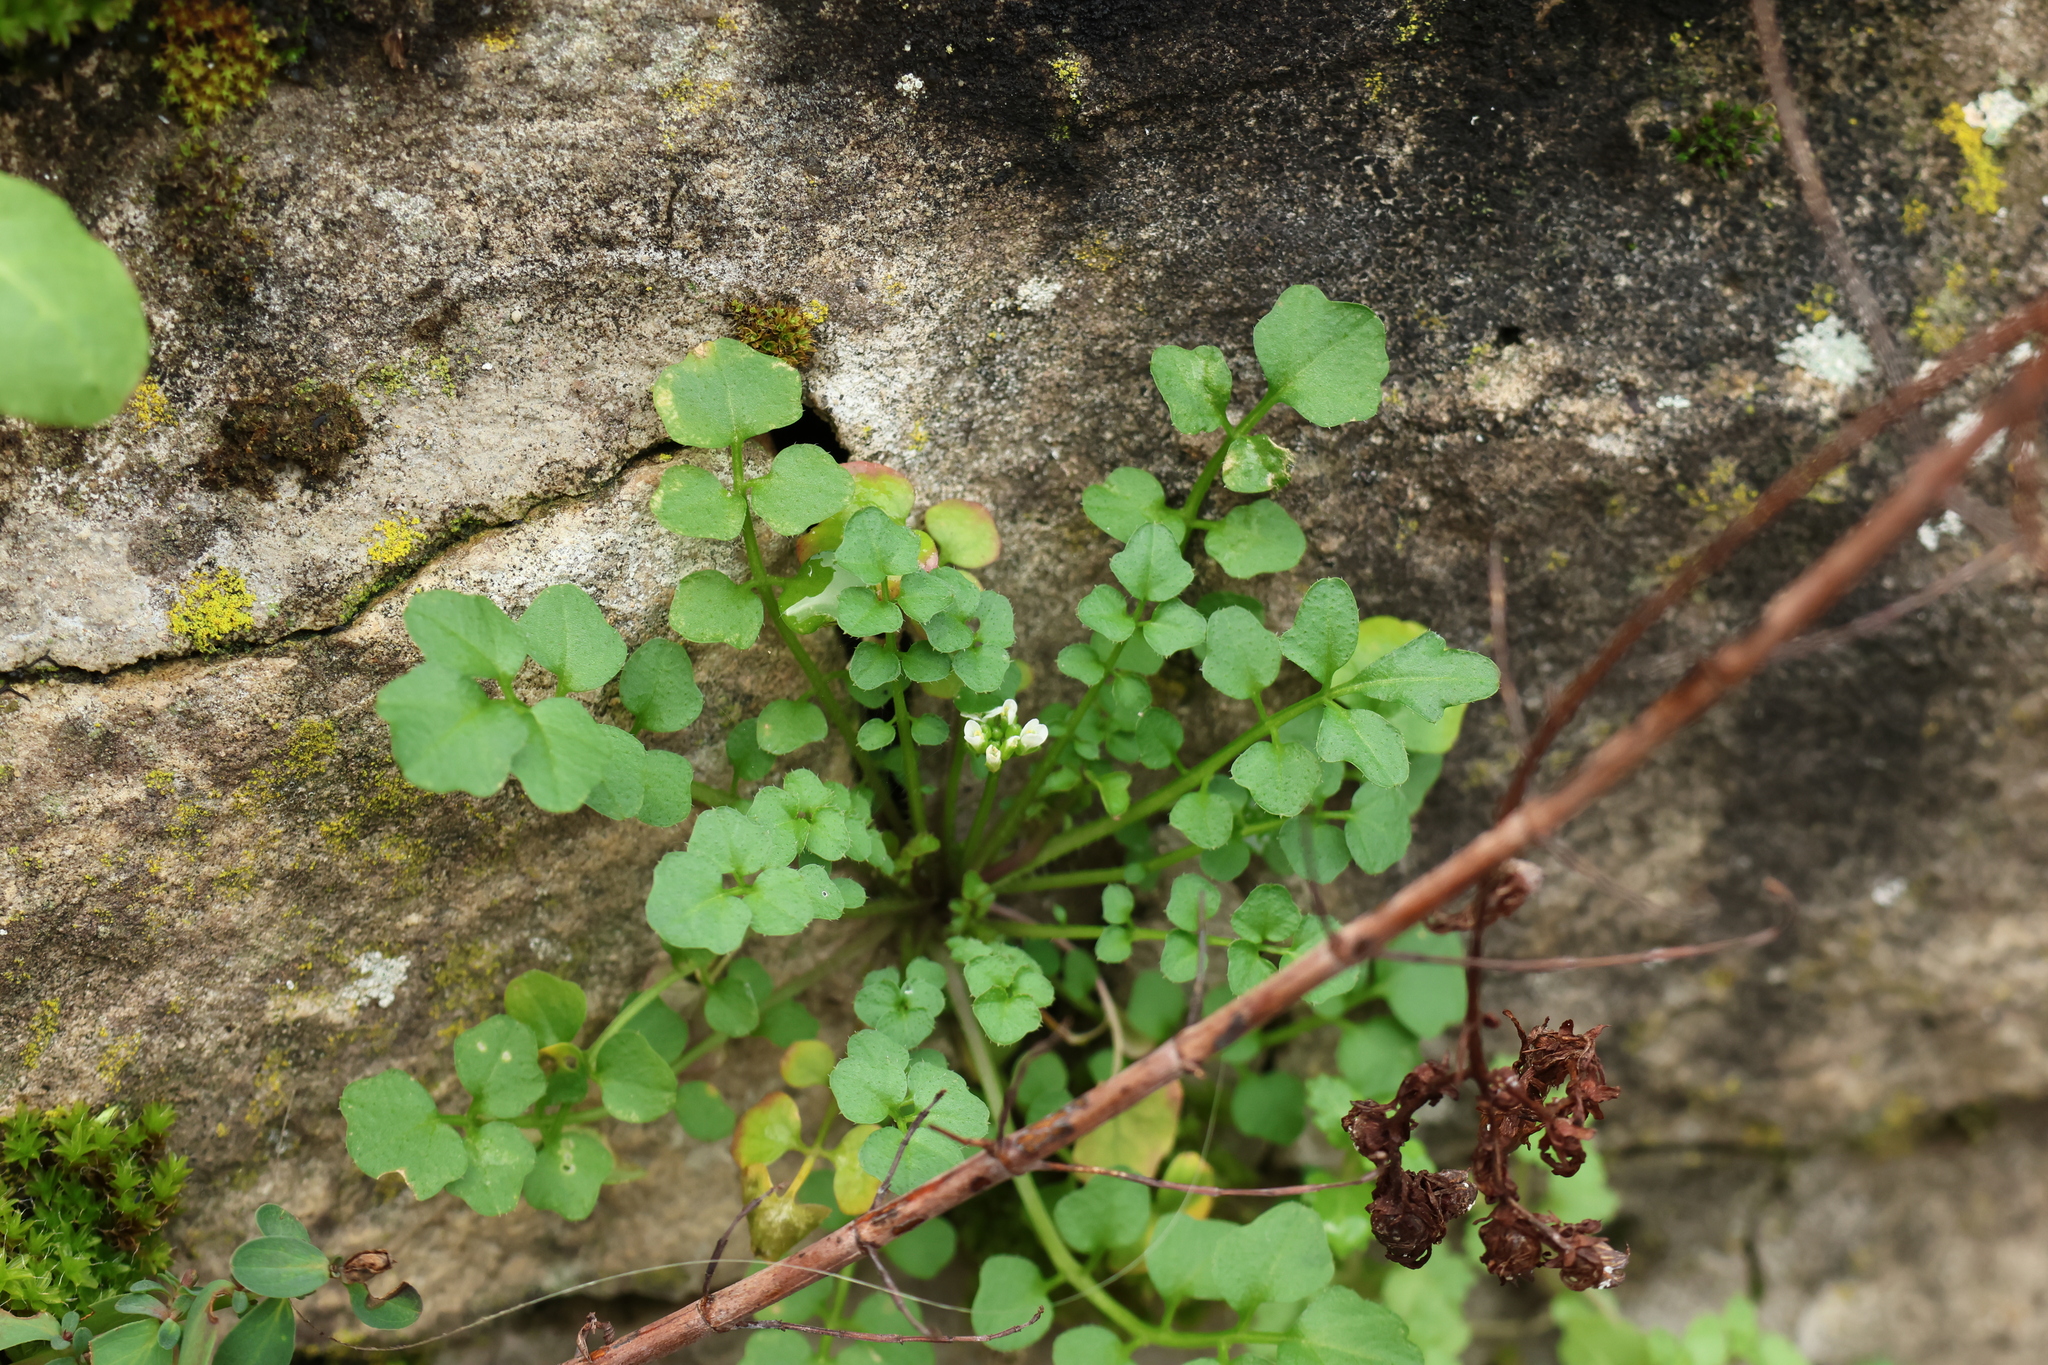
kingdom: Plantae
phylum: Tracheophyta
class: Magnoliopsida
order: Brassicales
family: Brassicaceae
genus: Cardamine
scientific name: Cardamine hirsuta
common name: Hairy bittercress
